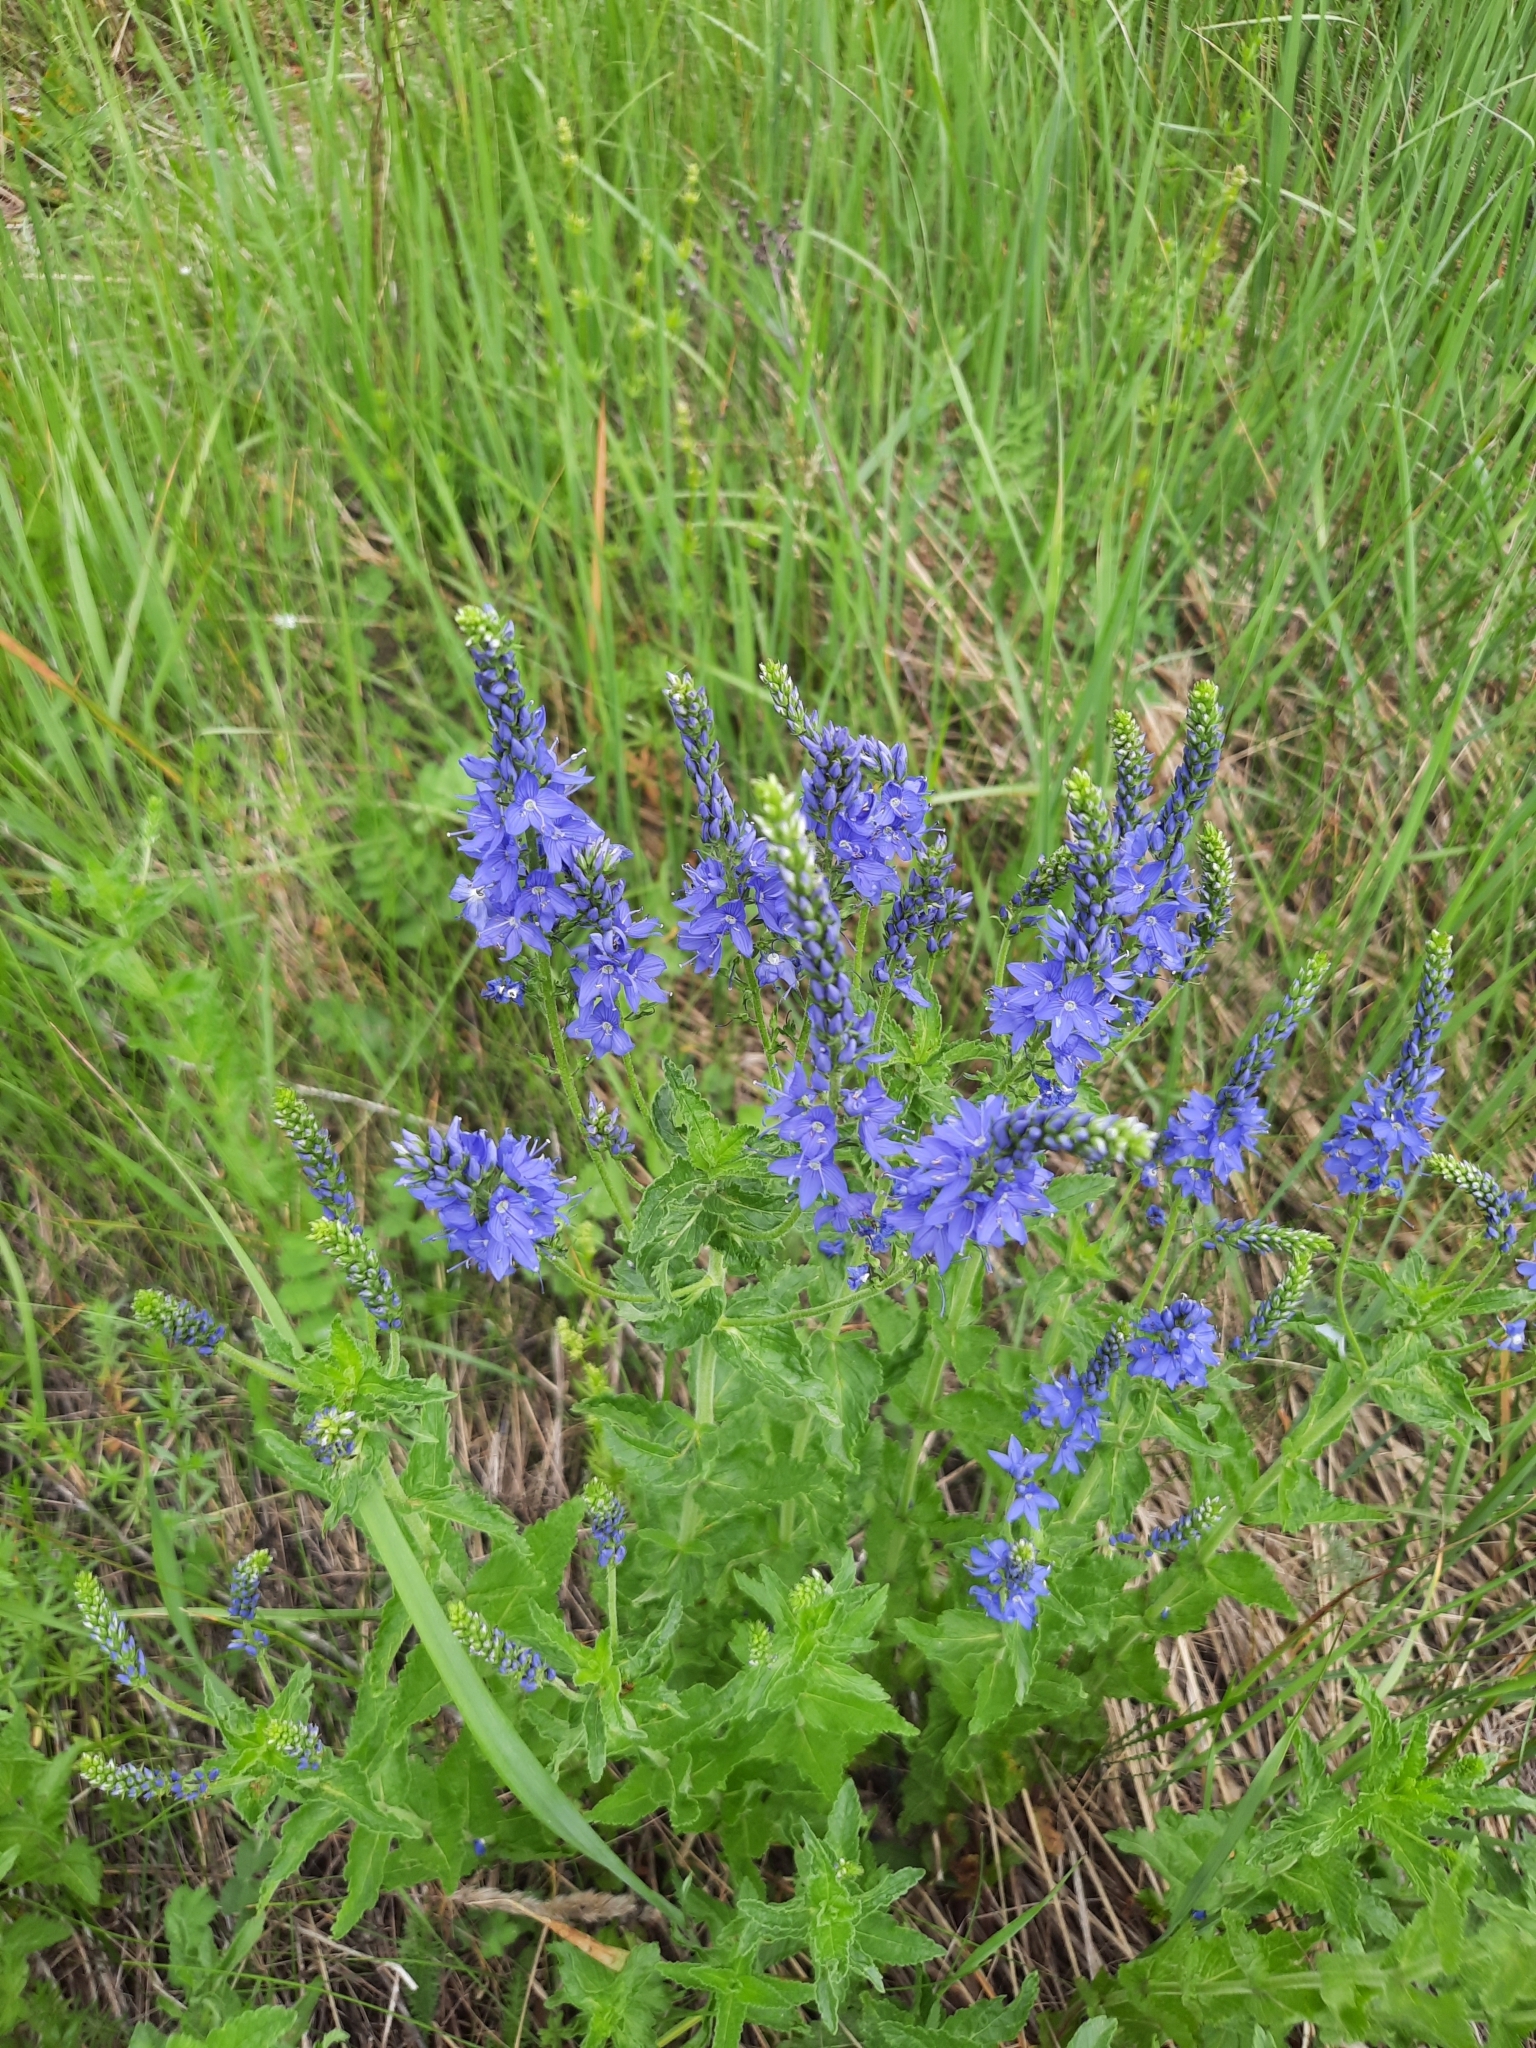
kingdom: Plantae
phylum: Tracheophyta
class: Magnoliopsida
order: Lamiales
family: Plantaginaceae
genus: Veronica
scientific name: Veronica teucrium
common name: Large speedwell
